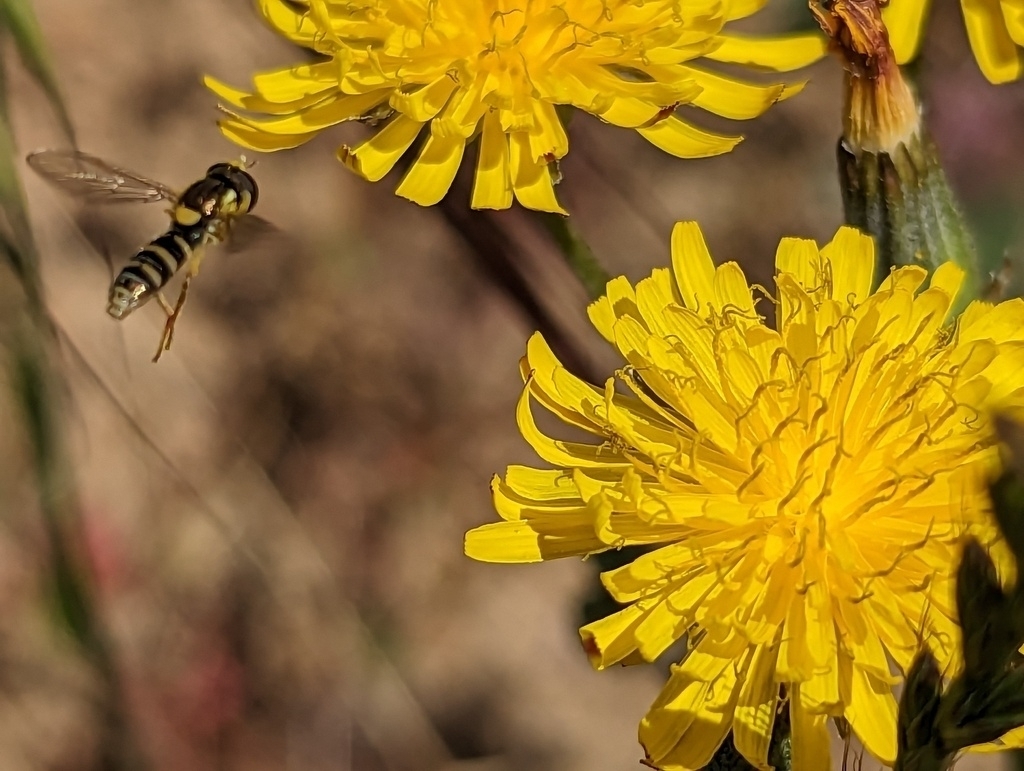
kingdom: Animalia
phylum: Arthropoda
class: Insecta
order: Diptera
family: Syrphidae
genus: Sphaerophoria
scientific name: Sphaerophoria sulphuripes
